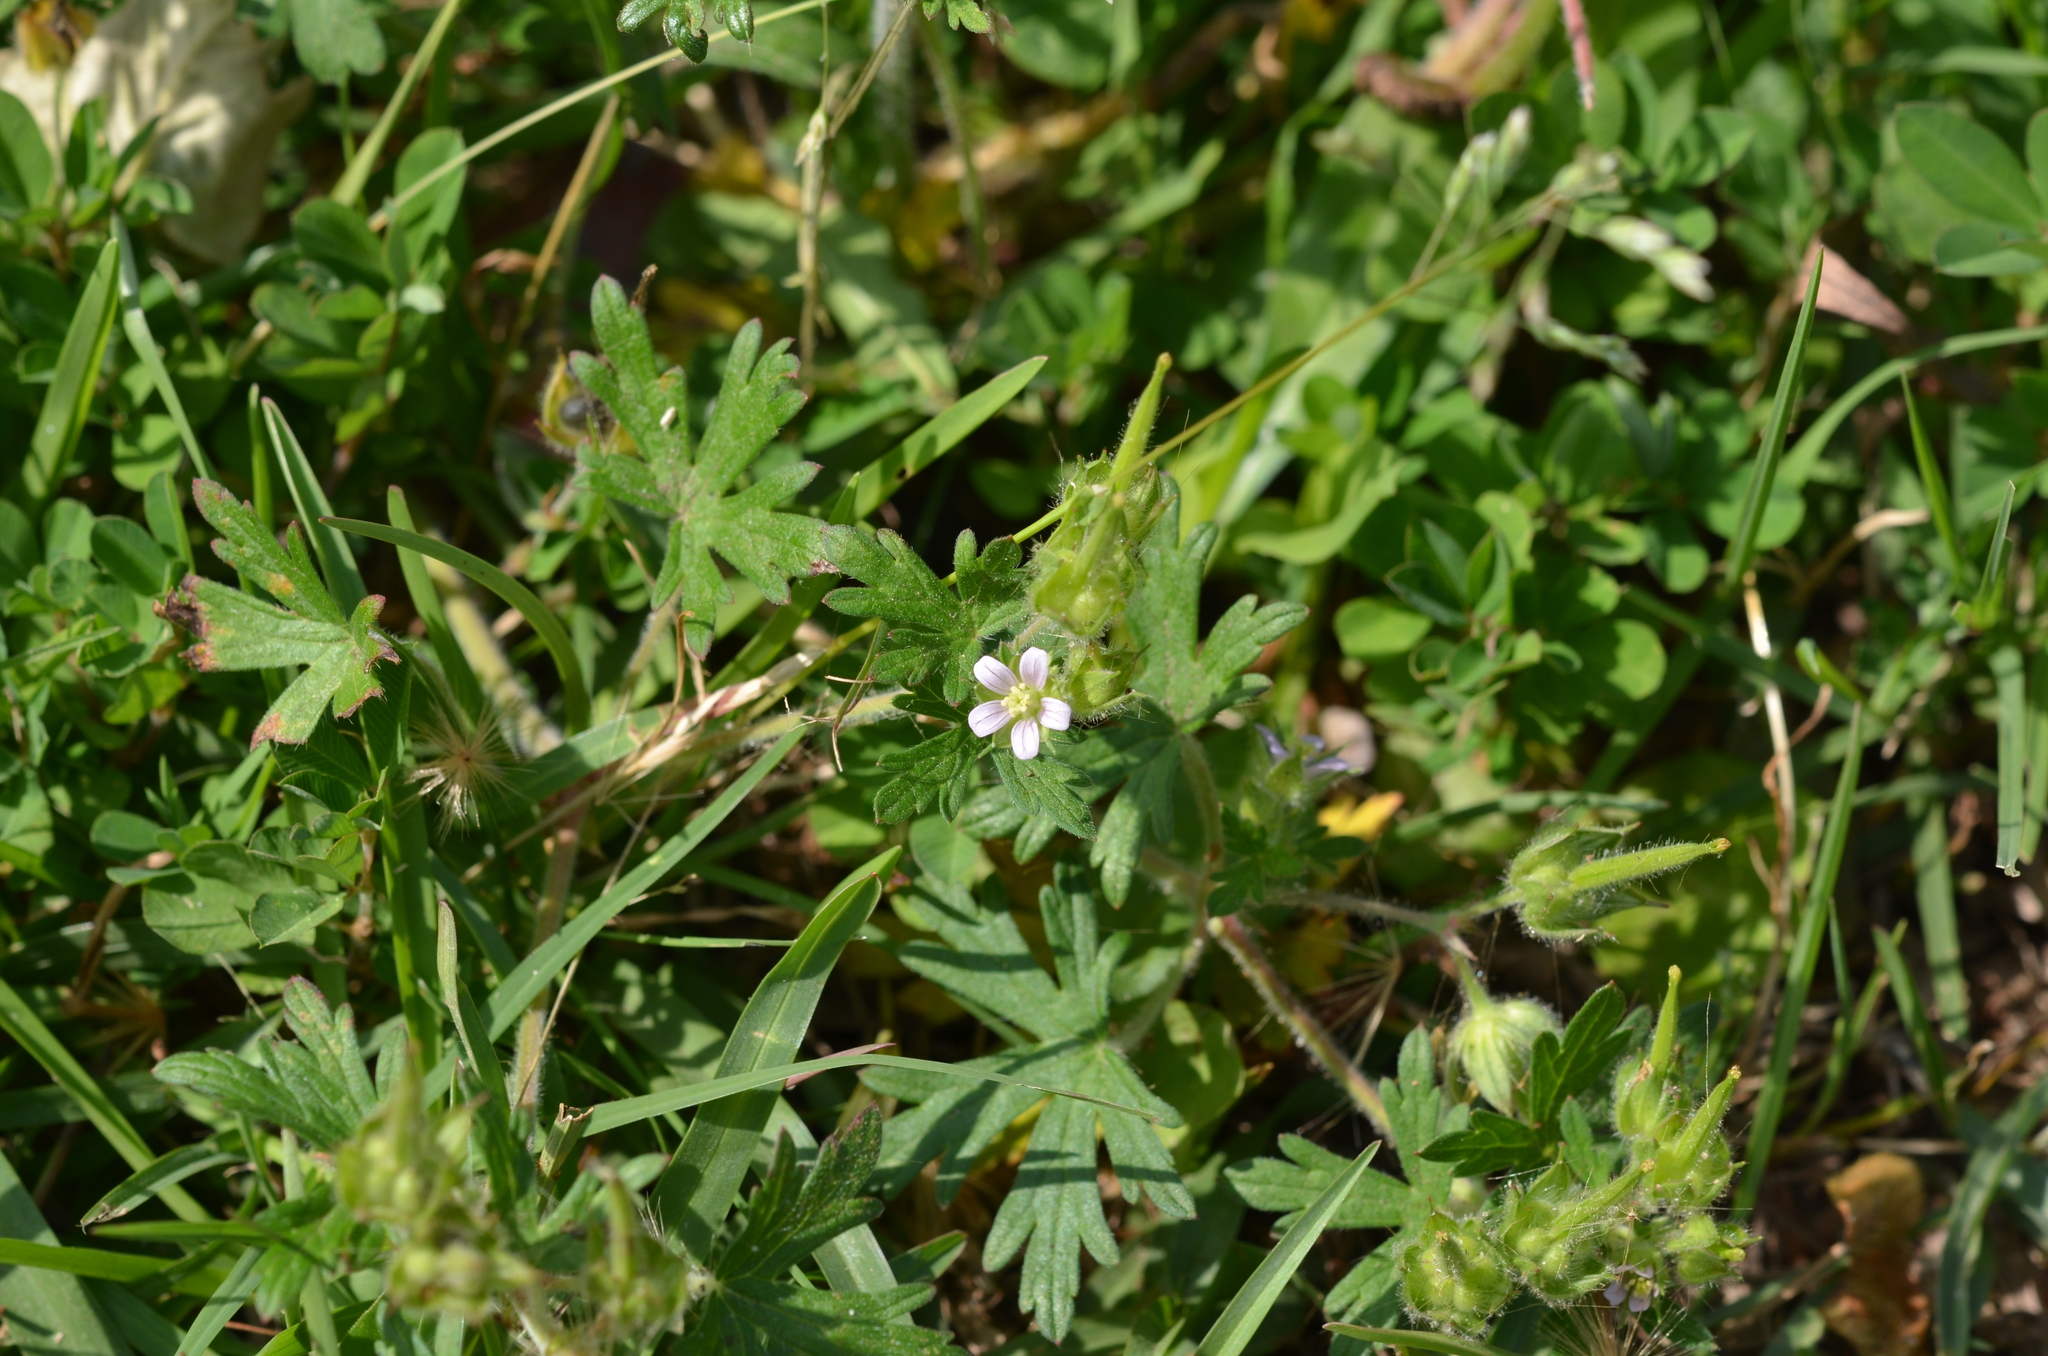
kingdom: Plantae
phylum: Tracheophyta
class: Magnoliopsida
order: Geraniales
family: Geraniaceae
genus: Geranium
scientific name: Geranium carolinianum
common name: Carolina crane's-bill
